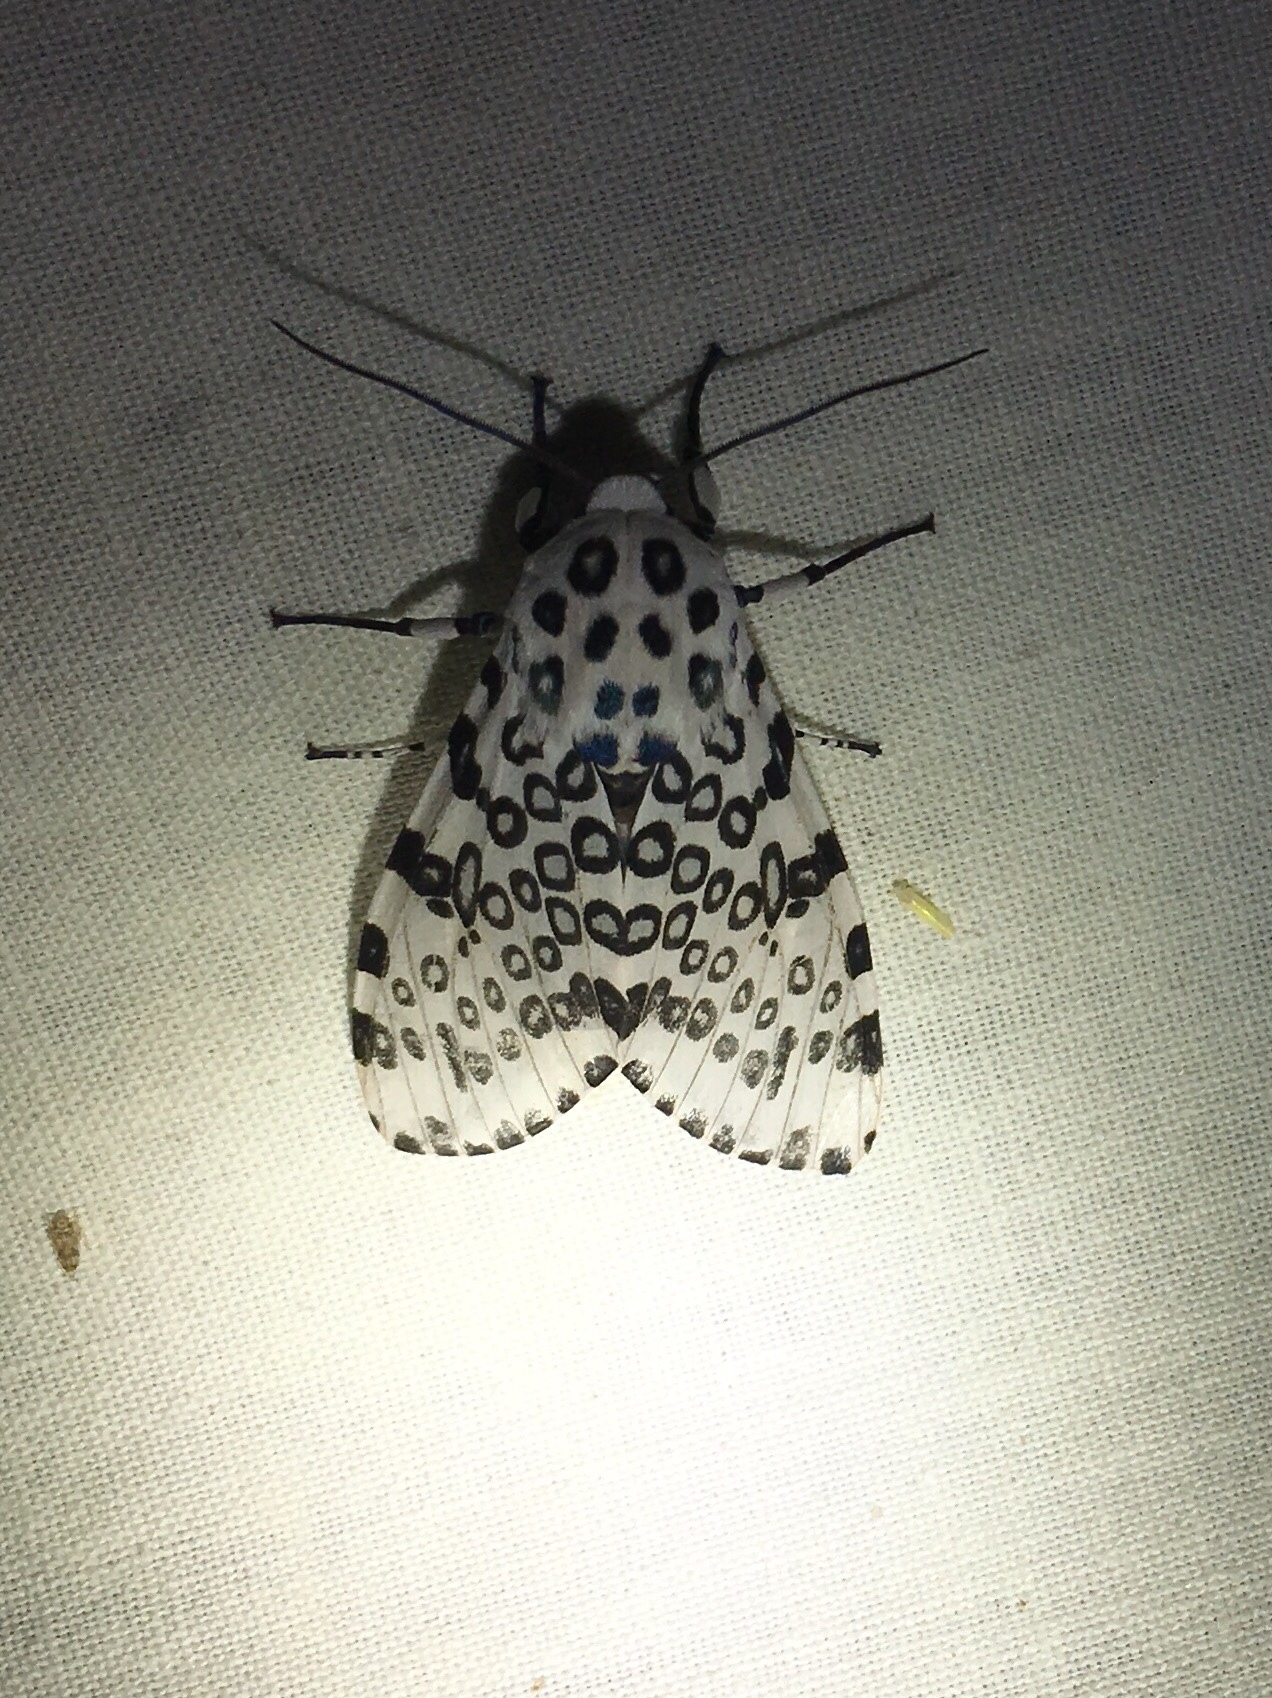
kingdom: Animalia
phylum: Arthropoda
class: Insecta
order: Lepidoptera
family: Erebidae
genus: Hypercompe
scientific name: Hypercompe scribonia
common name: Giant leopard moth
